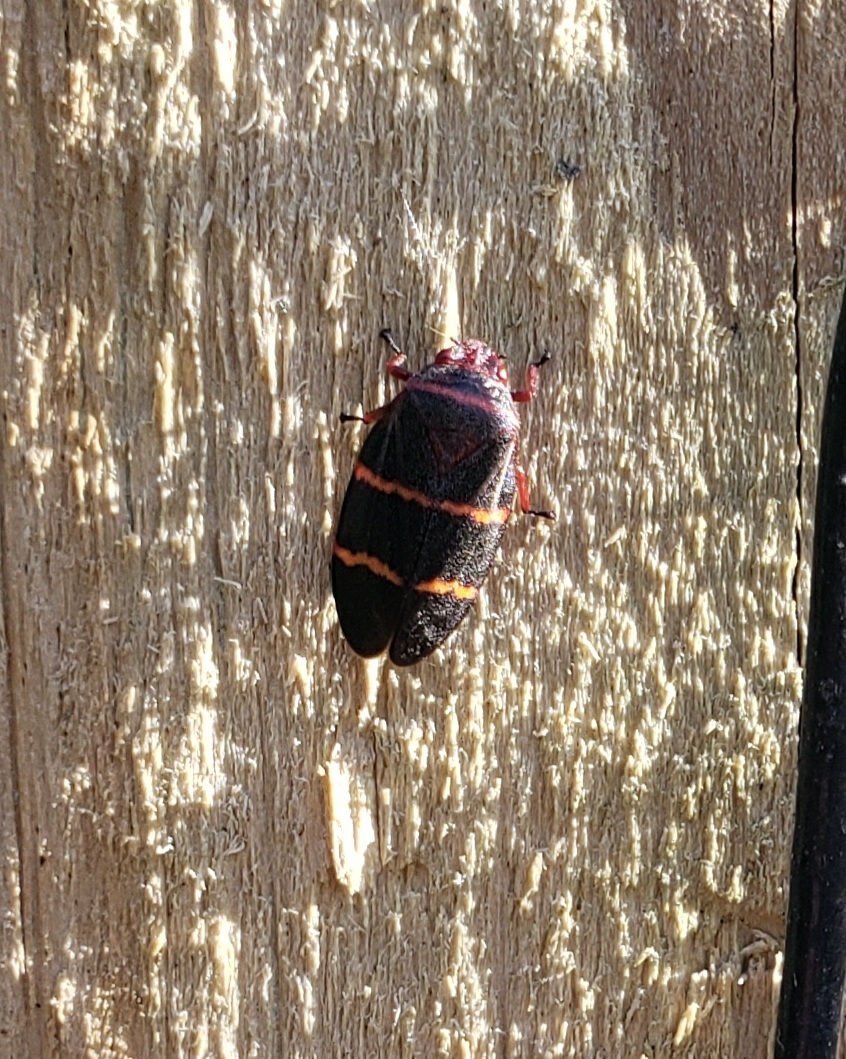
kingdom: Animalia
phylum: Arthropoda
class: Insecta
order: Hemiptera
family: Cercopidae
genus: Prosapia
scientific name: Prosapia bicincta
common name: Twolined spittlebug
